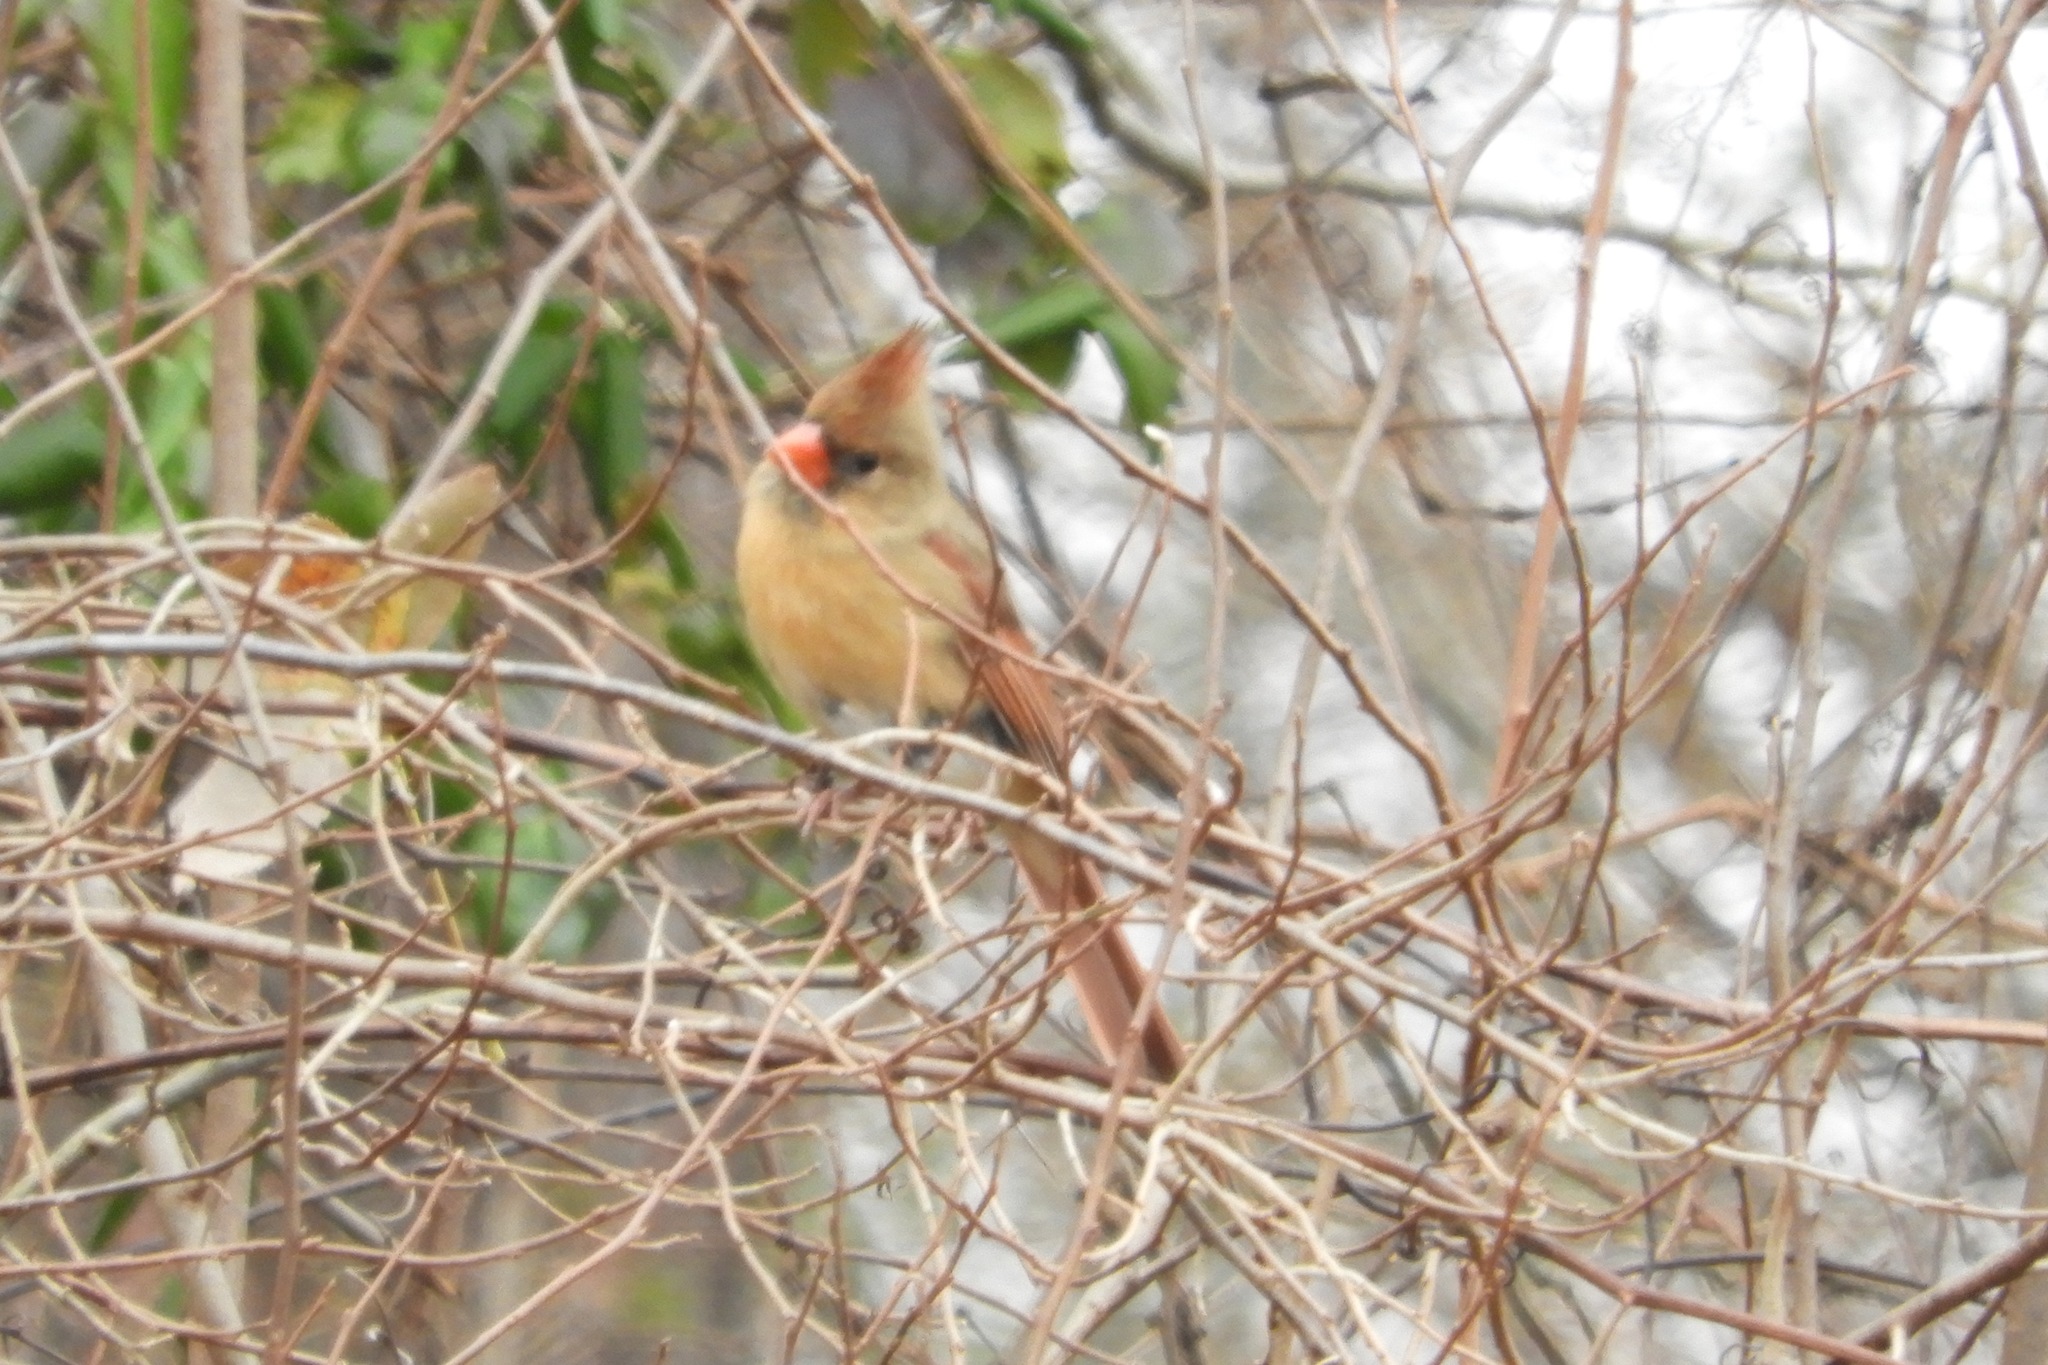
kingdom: Animalia
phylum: Chordata
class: Aves
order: Passeriformes
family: Cardinalidae
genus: Cardinalis
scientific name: Cardinalis cardinalis
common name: Northern cardinal
